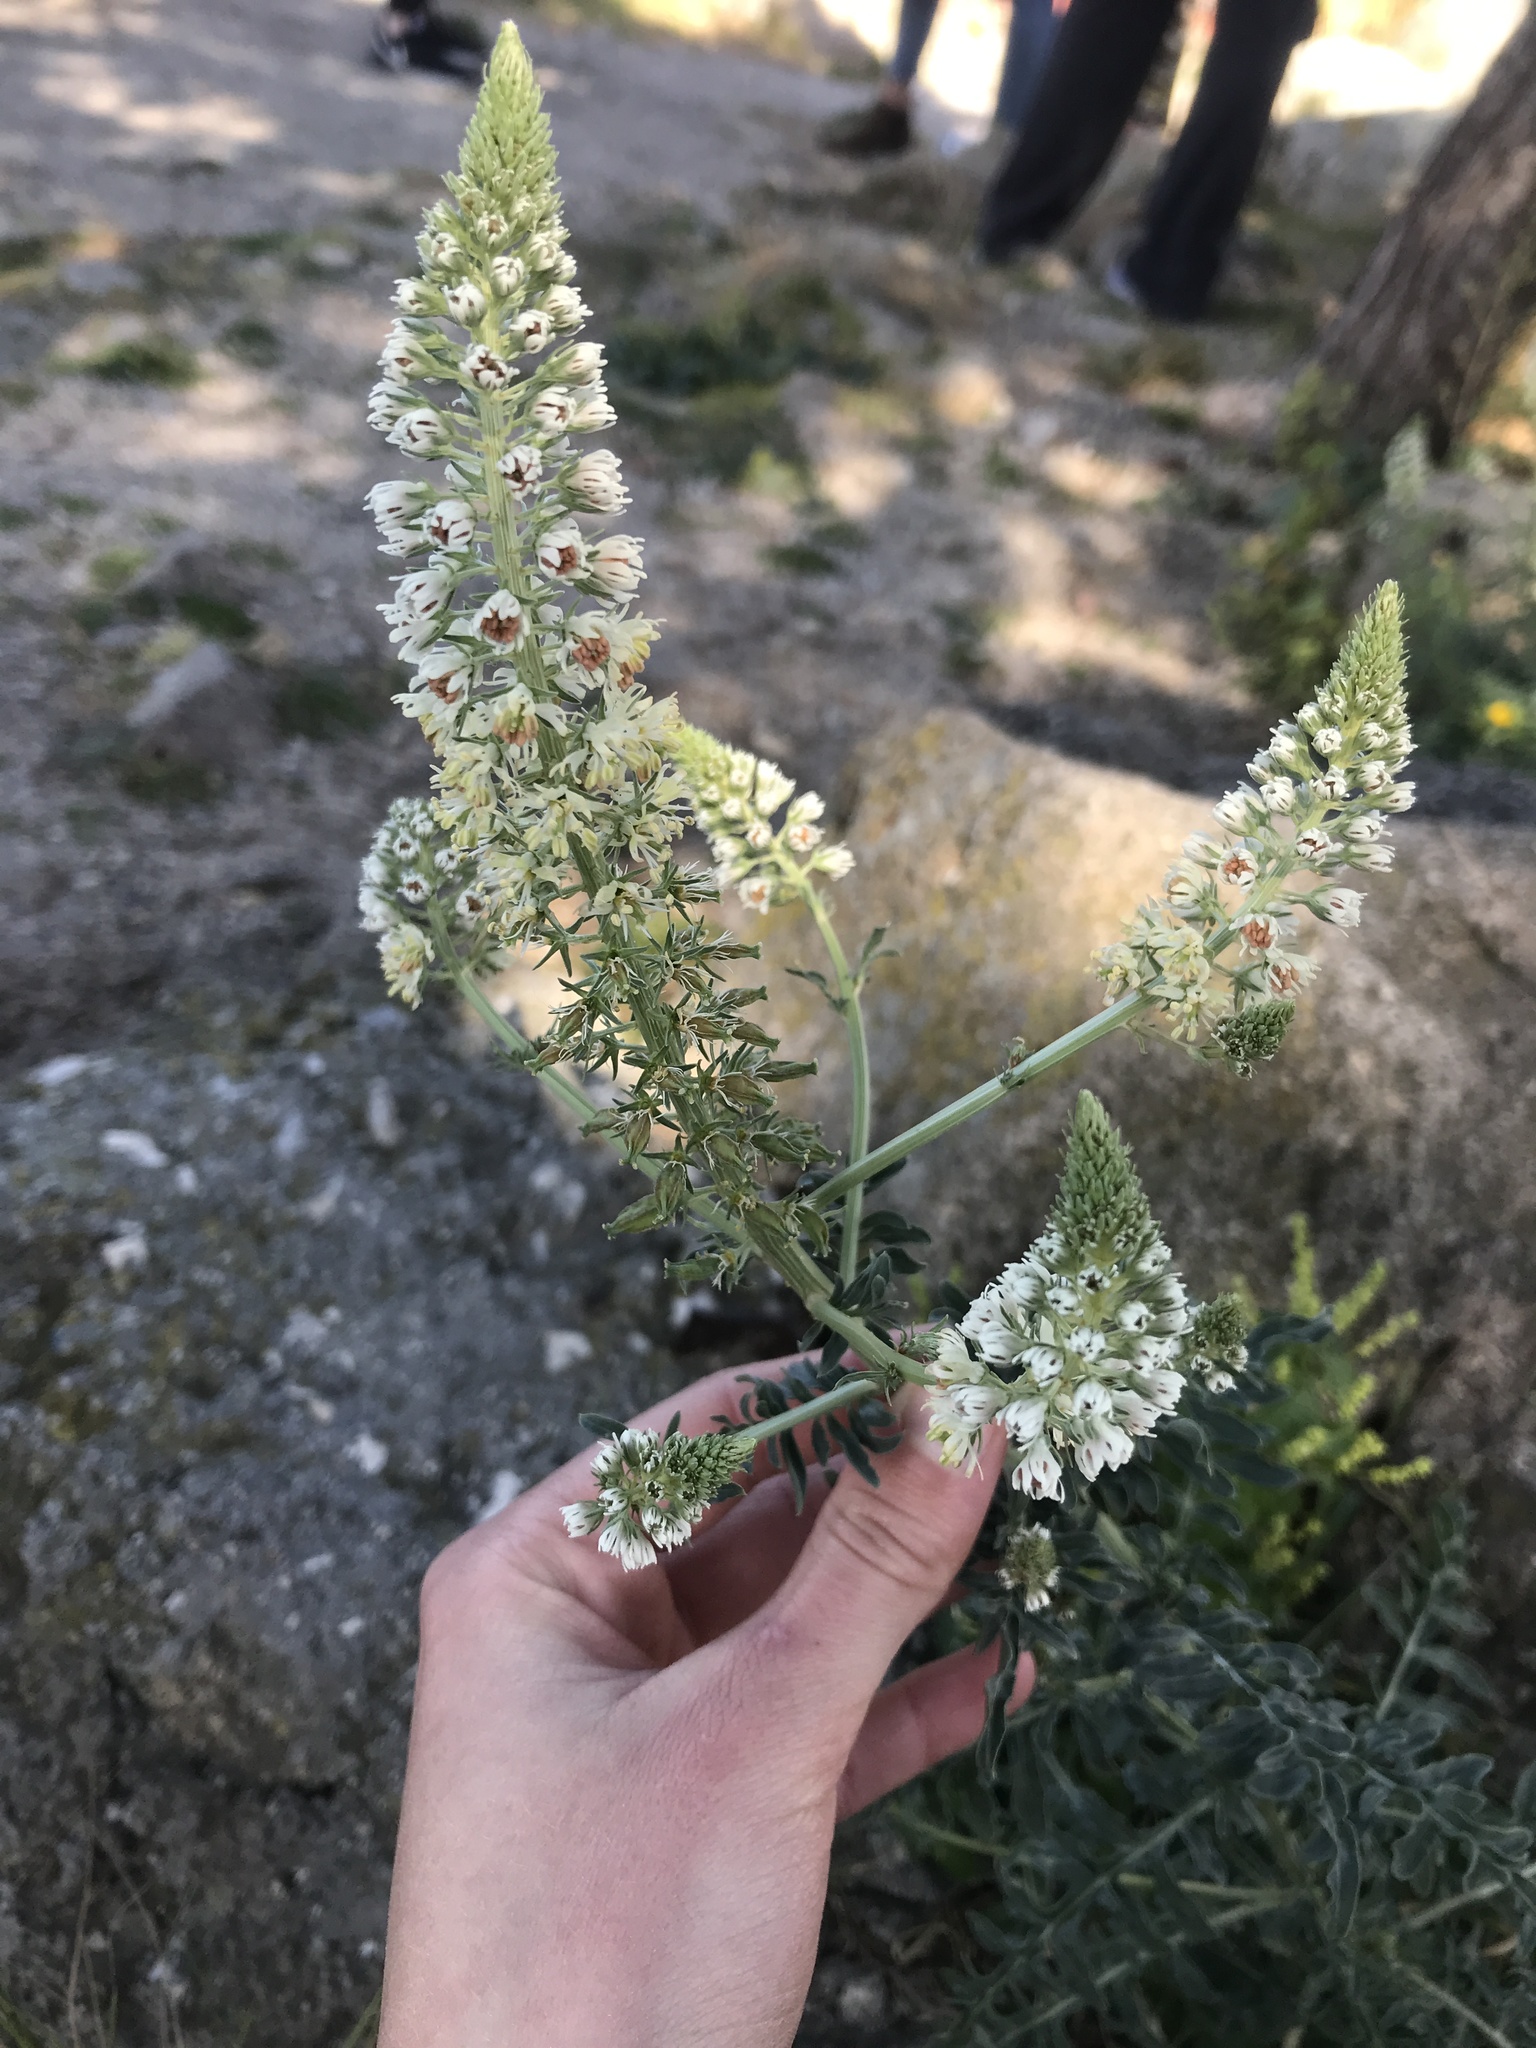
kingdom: Plantae
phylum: Tracheophyta
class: Magnoliopsida
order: Brassicales
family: Resedaceae
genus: Reseda
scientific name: Reseda alba
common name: White mignonette
